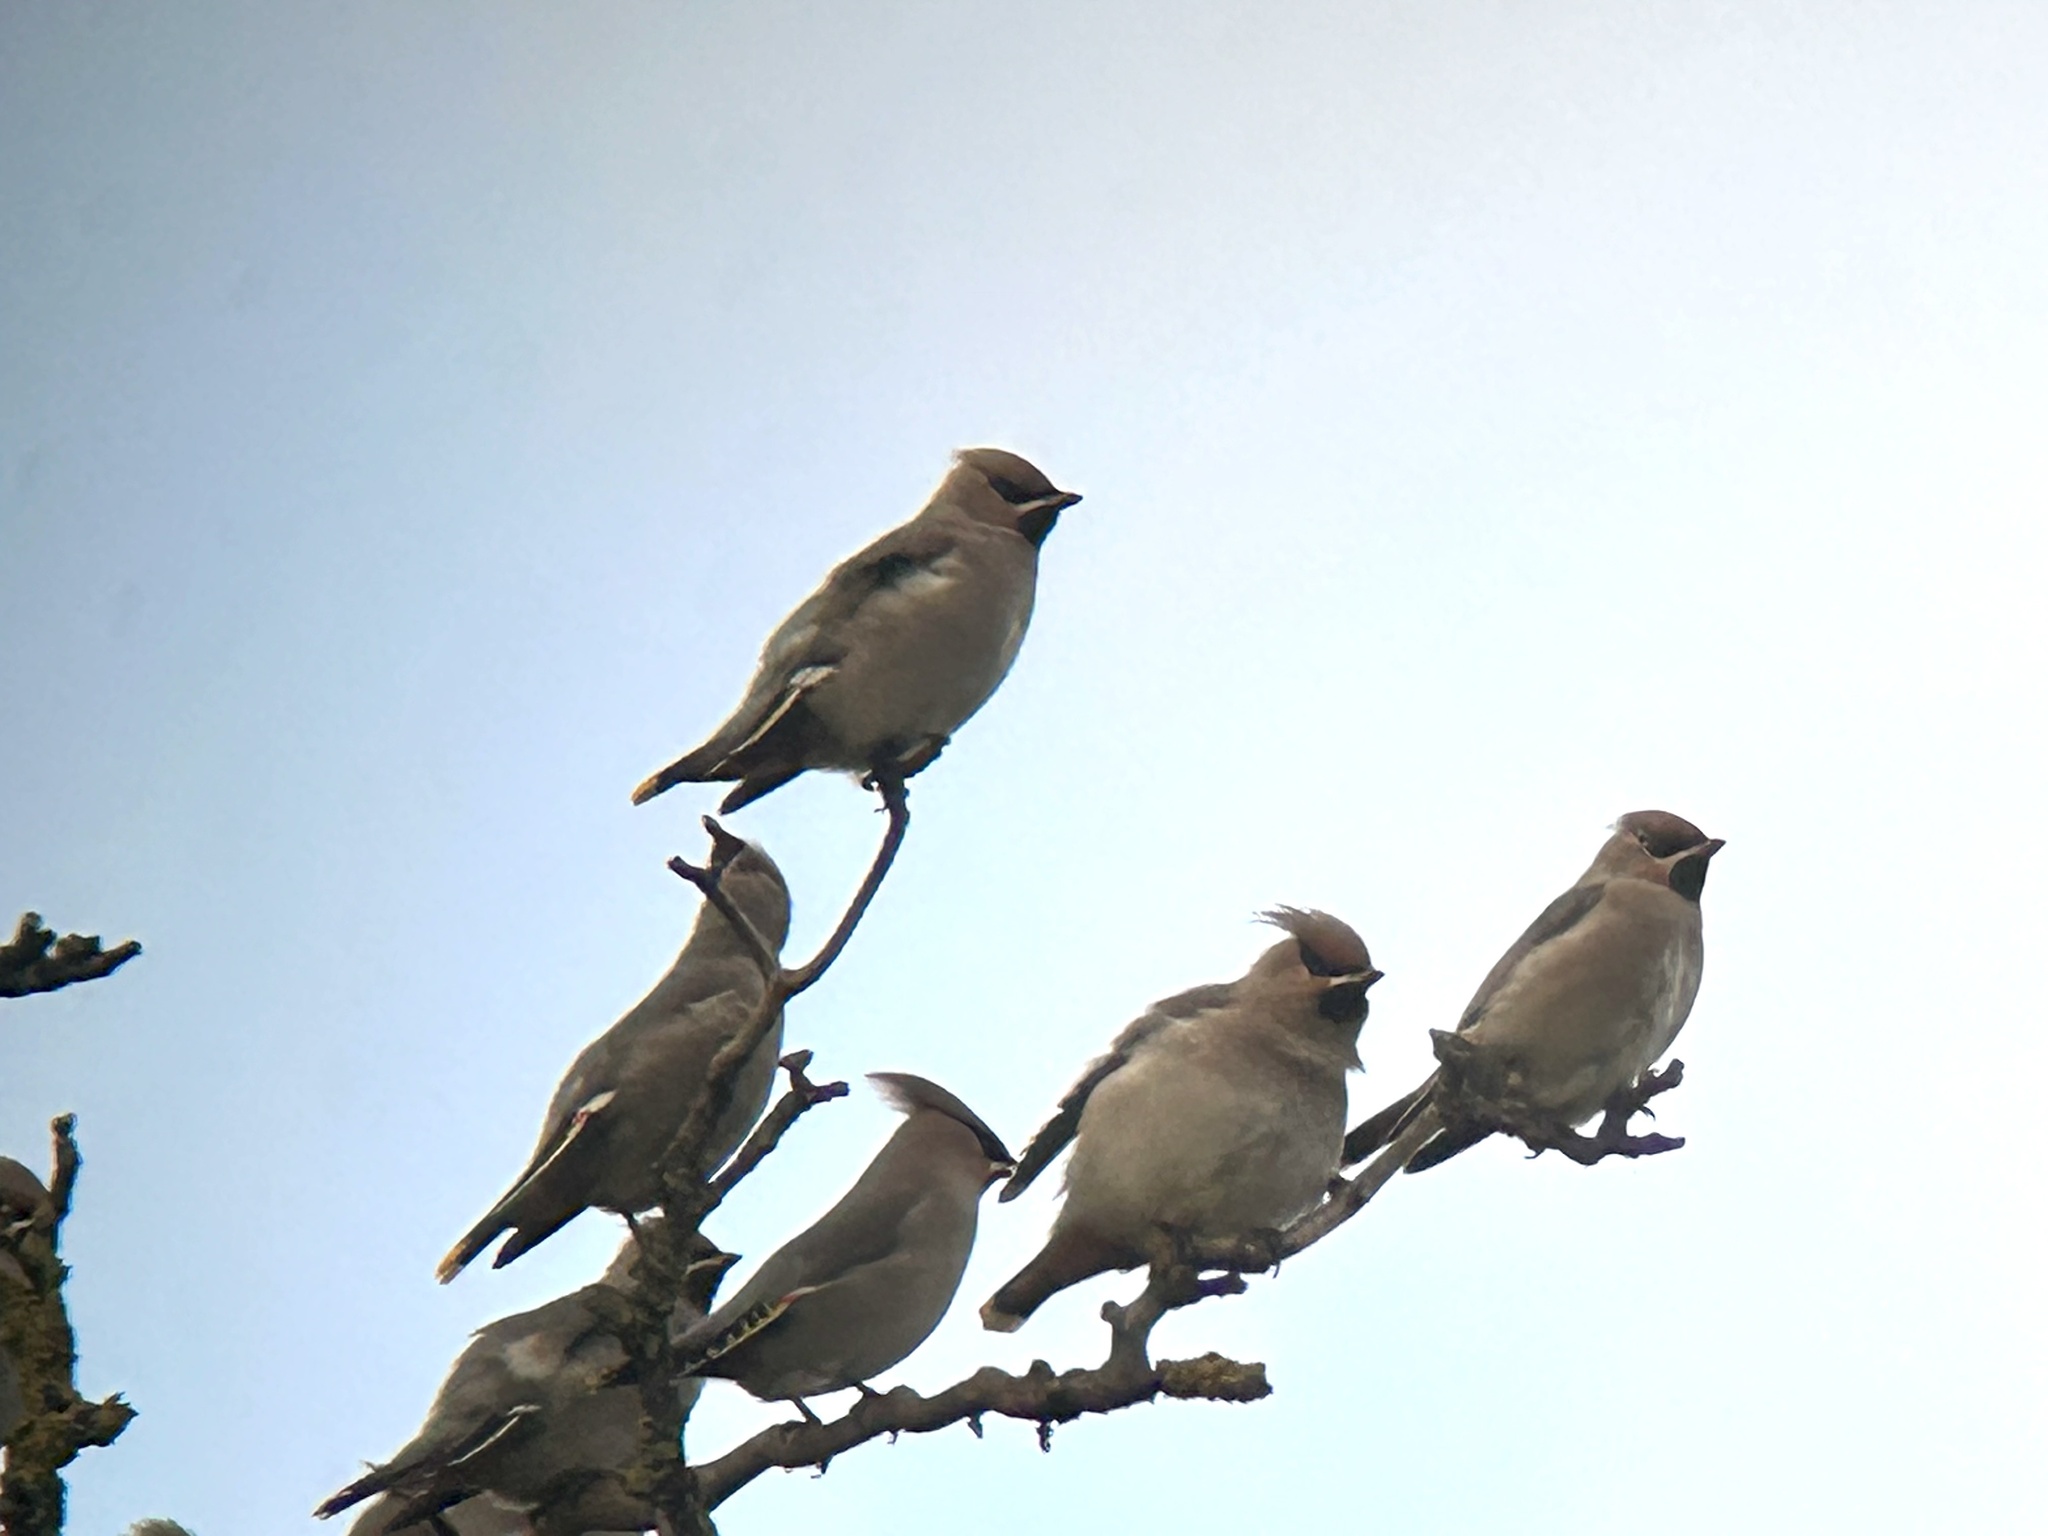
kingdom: Animalia
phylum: Chordata
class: Aves
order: Passeriformes
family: Bombycillidae
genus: Bombycilla
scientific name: Bombycilla garrulus
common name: Bohemian waxwing
